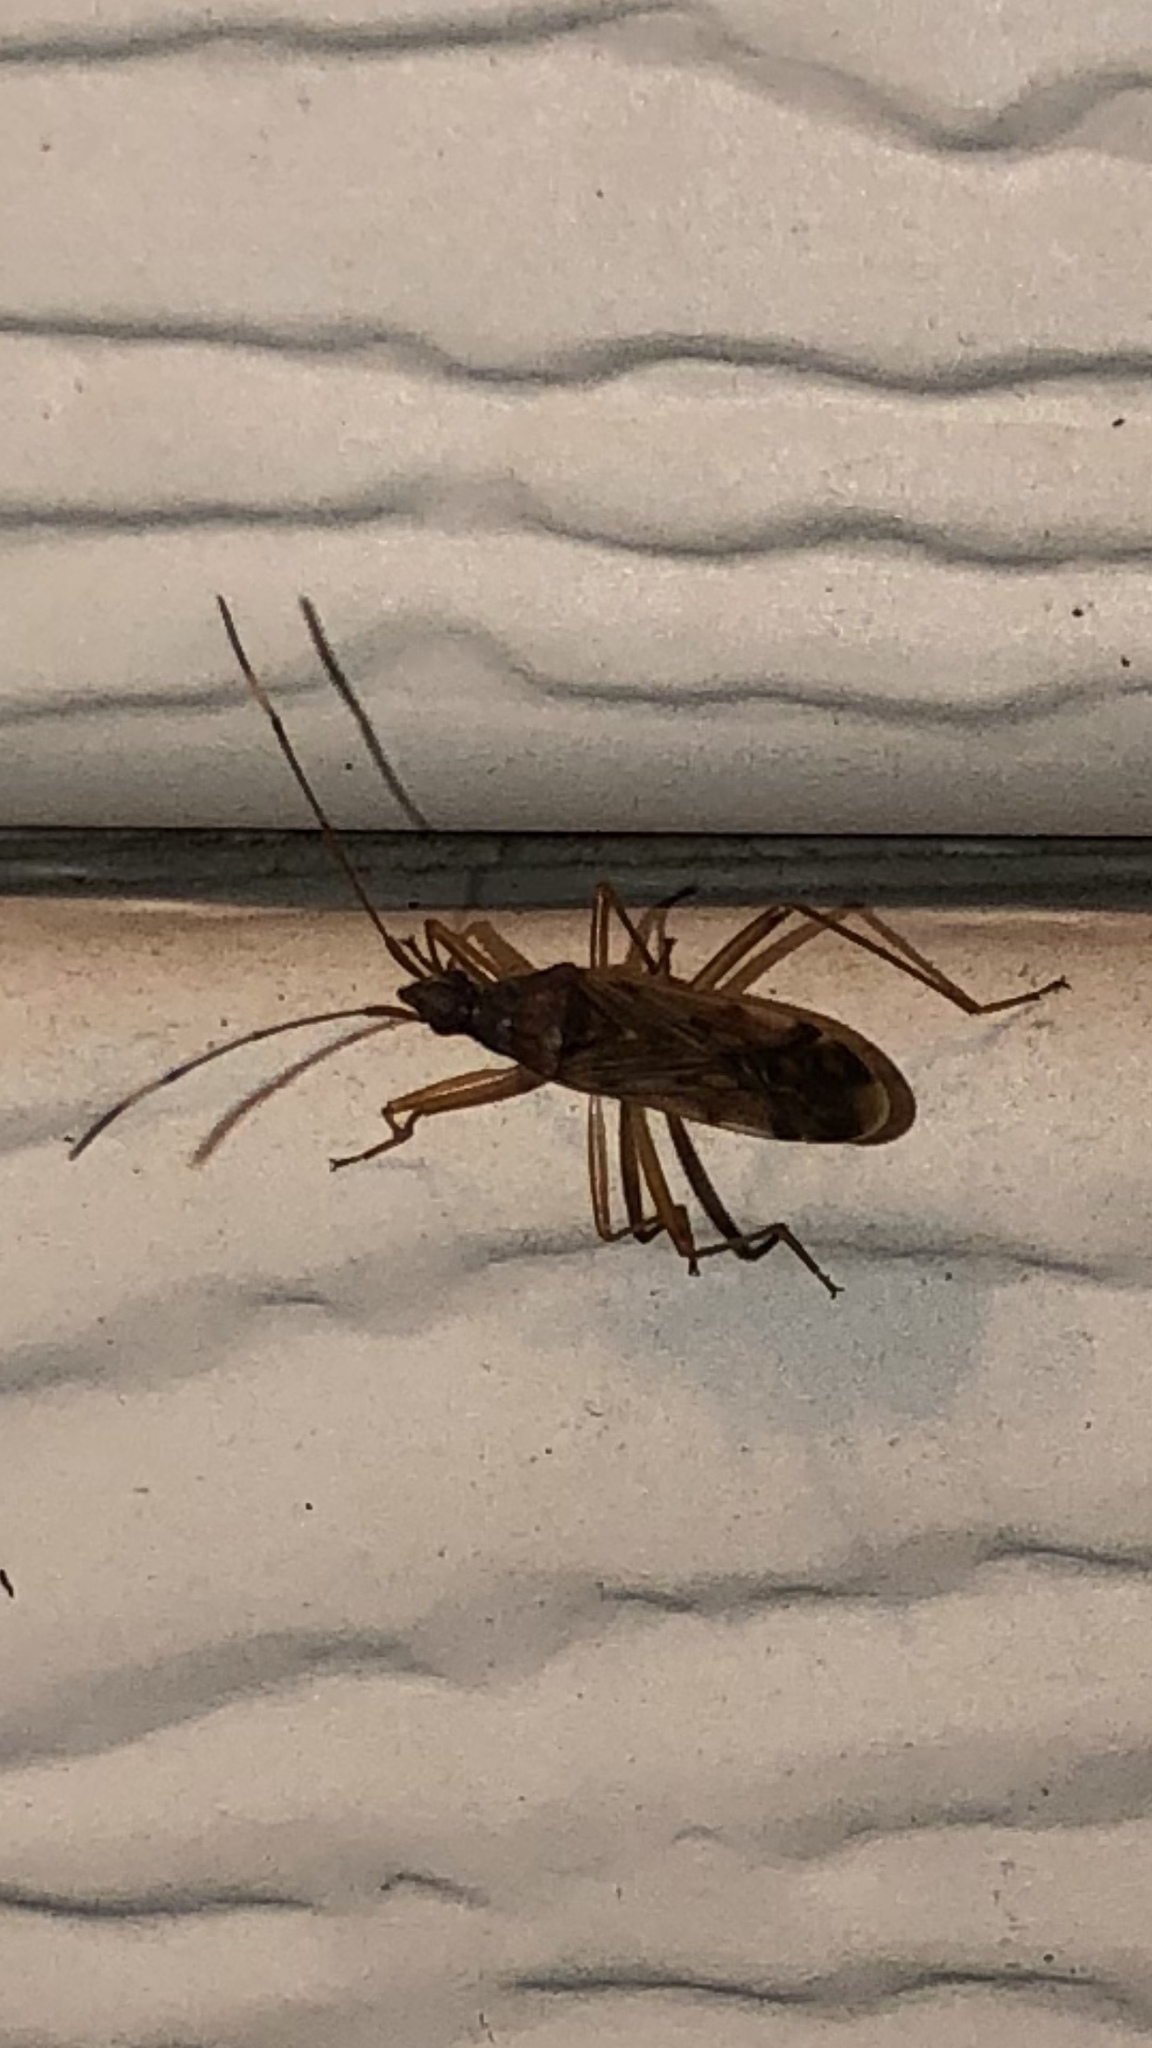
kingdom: Animalia
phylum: Arthropoda
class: Insecta
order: Hemiptera
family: Rhyparochromidae
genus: Ozophora
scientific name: Ozophora depicturata
